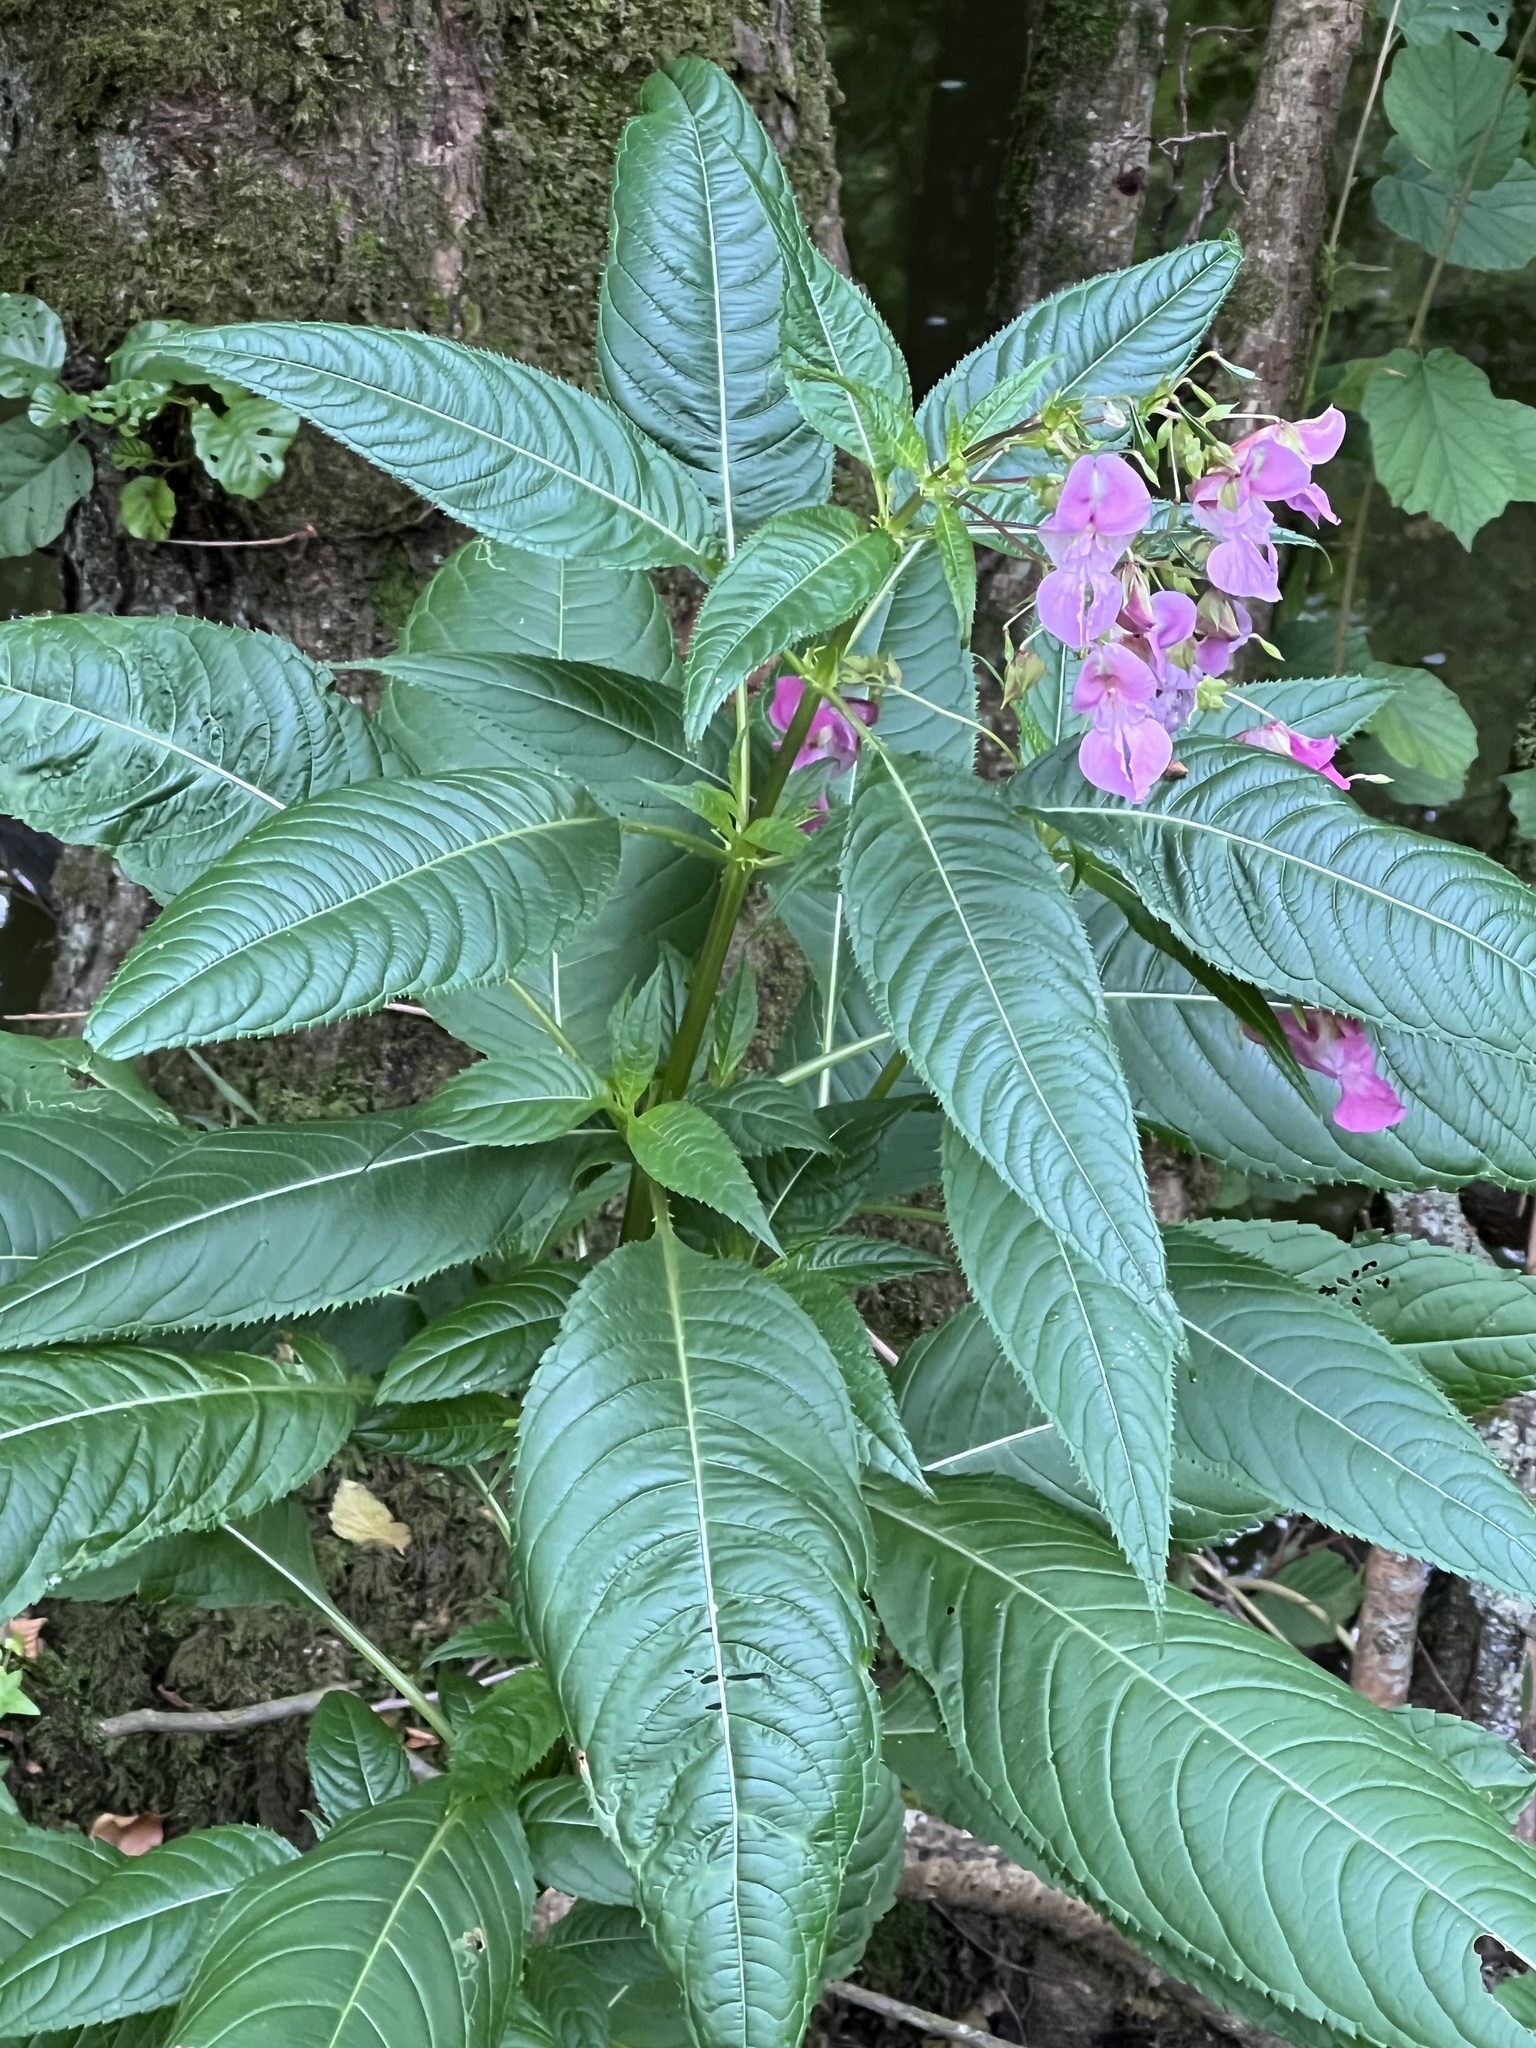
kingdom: Plantae
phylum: Tracheophyta
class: Magnoliopsida
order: Ericales
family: Balsaminaceae
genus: Impatiens
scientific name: Impatiens glandulifera
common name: Himalayan balsam
